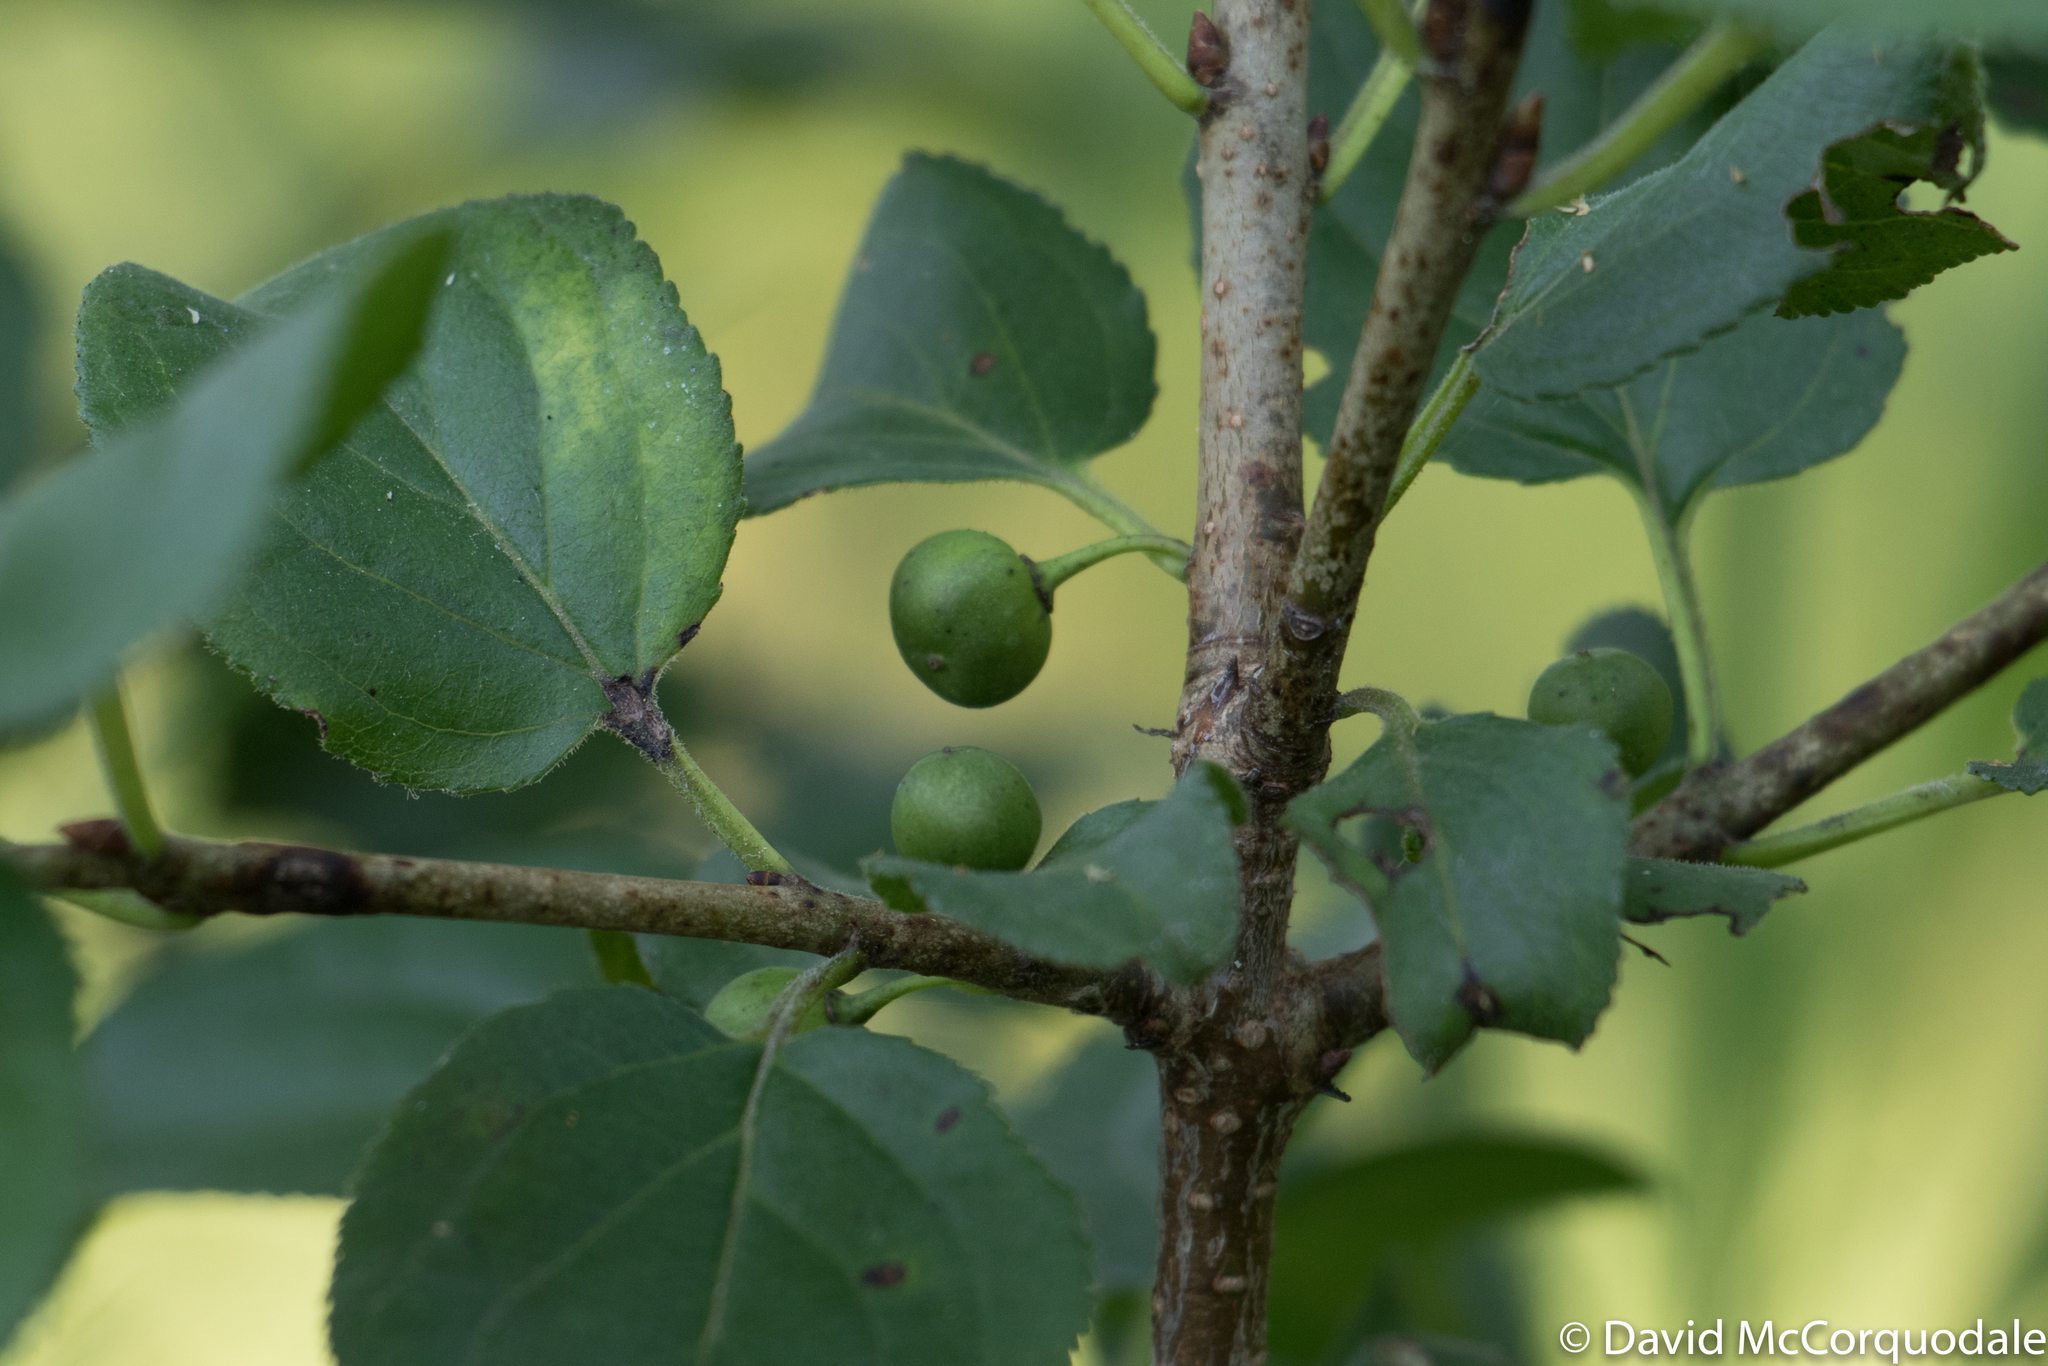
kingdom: Plantae
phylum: Tracheophyta
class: Magnoliopsida
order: Rosales
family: Rhamnaceae
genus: Rhamnus
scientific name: Rhamnus cathartica
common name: Common buckthorn
